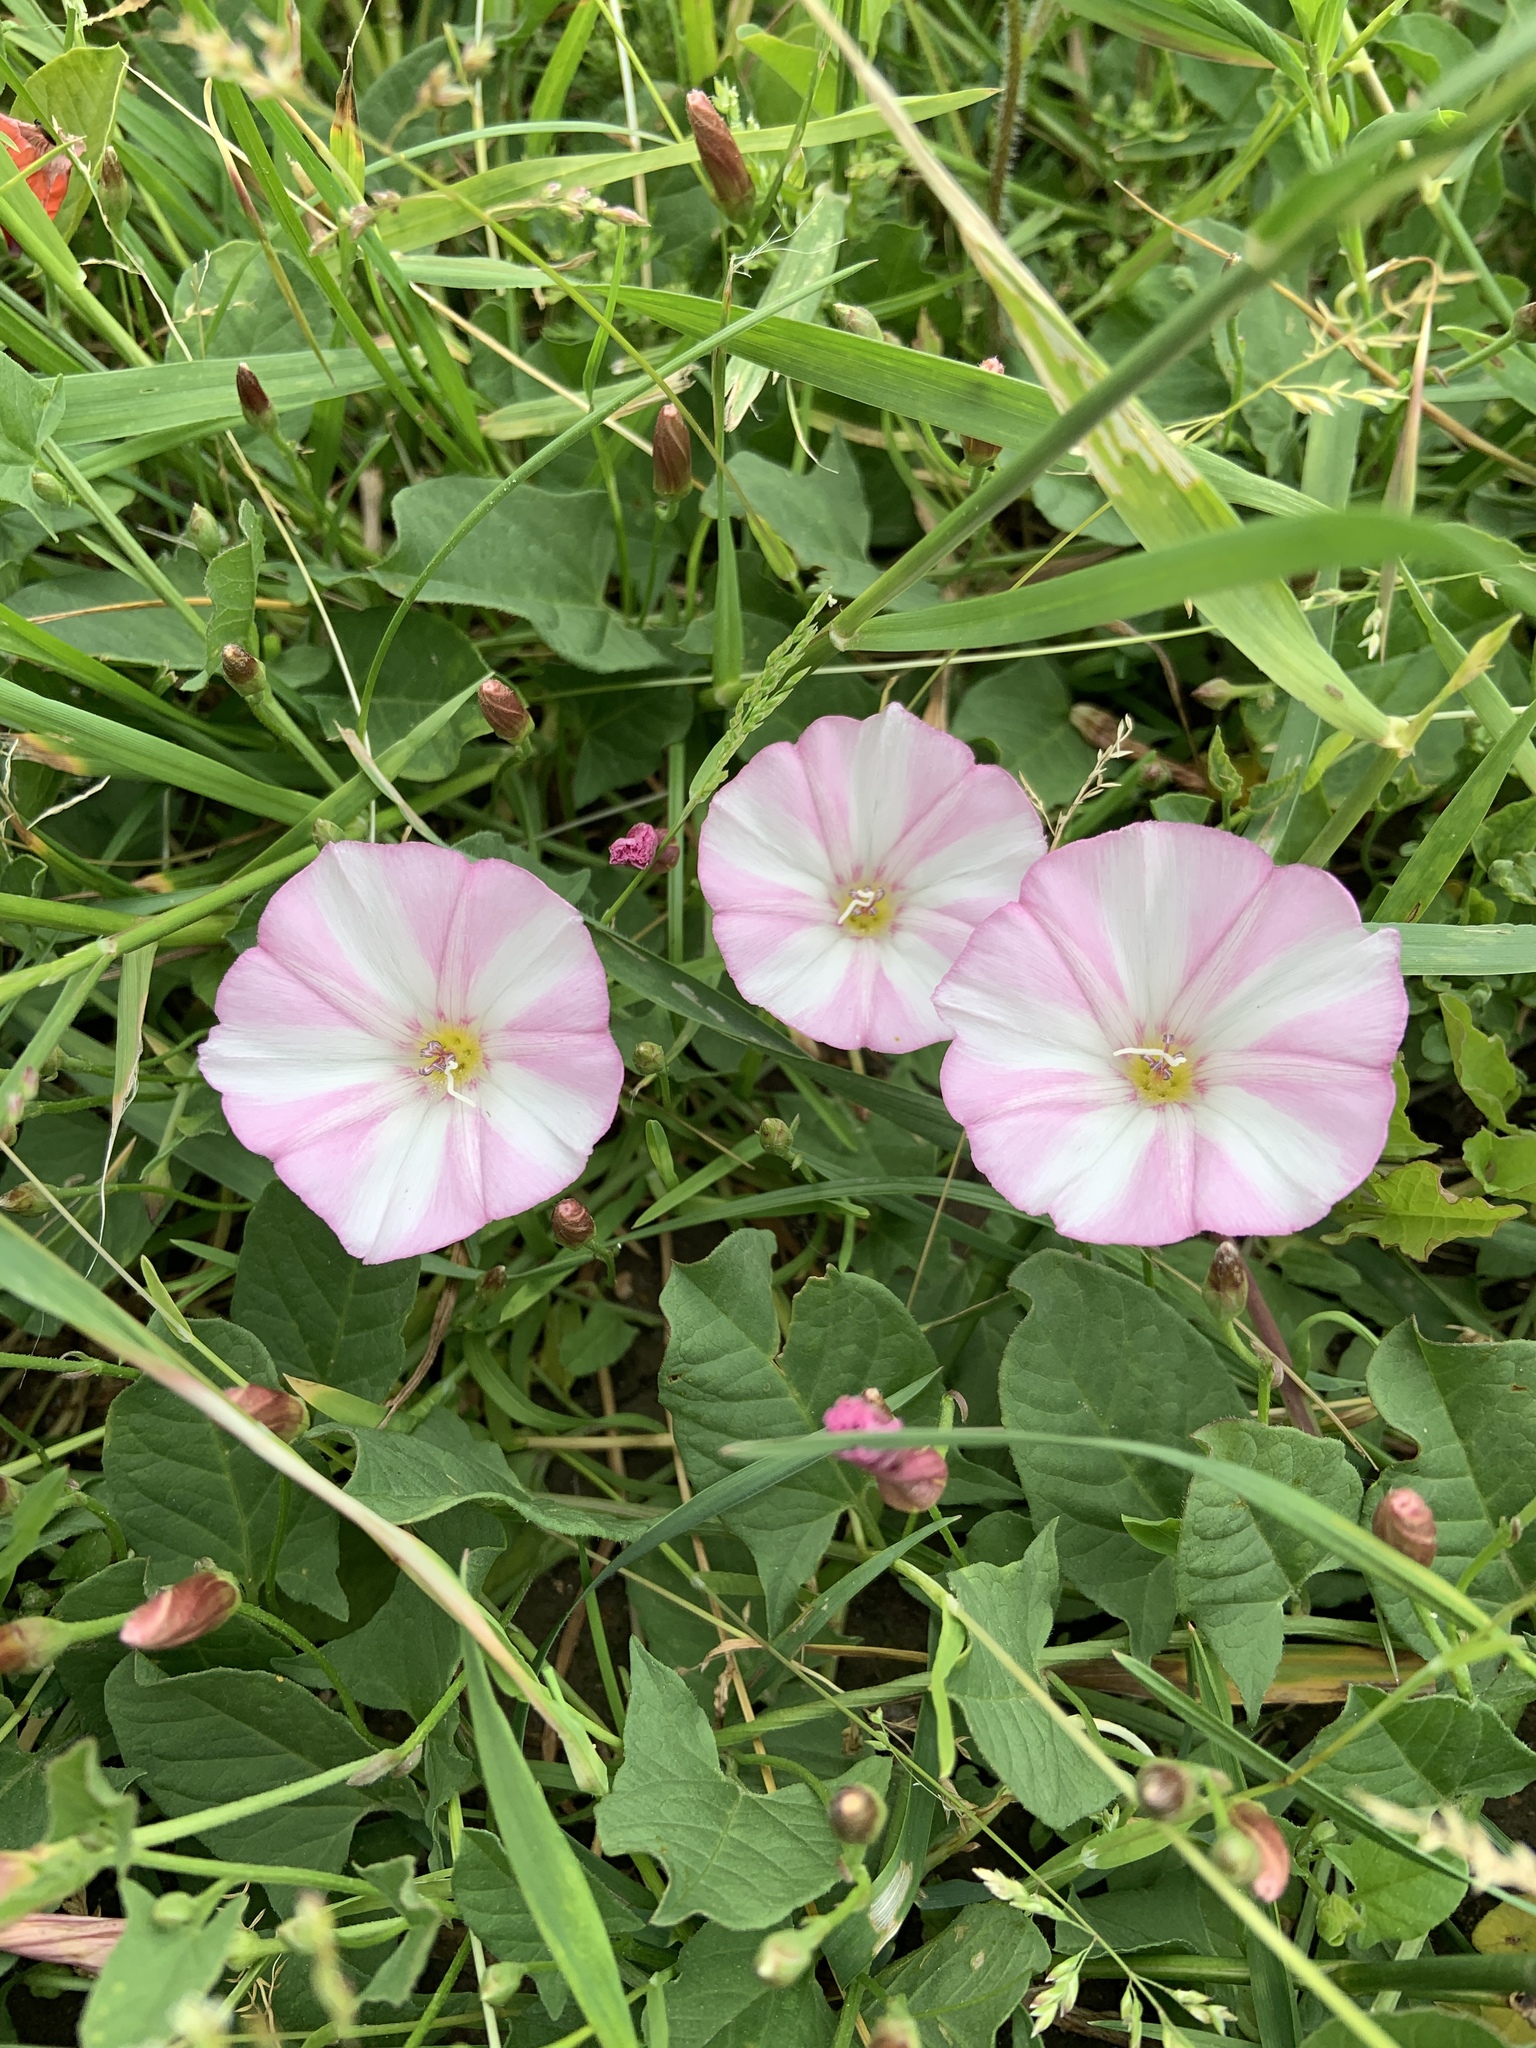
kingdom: Plantae
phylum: Tracheophyta
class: Magnoliopsida
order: Solanales
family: Convolvulaceae
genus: Convolvulus
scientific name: Convolvulus arvensis
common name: Field bindweed
